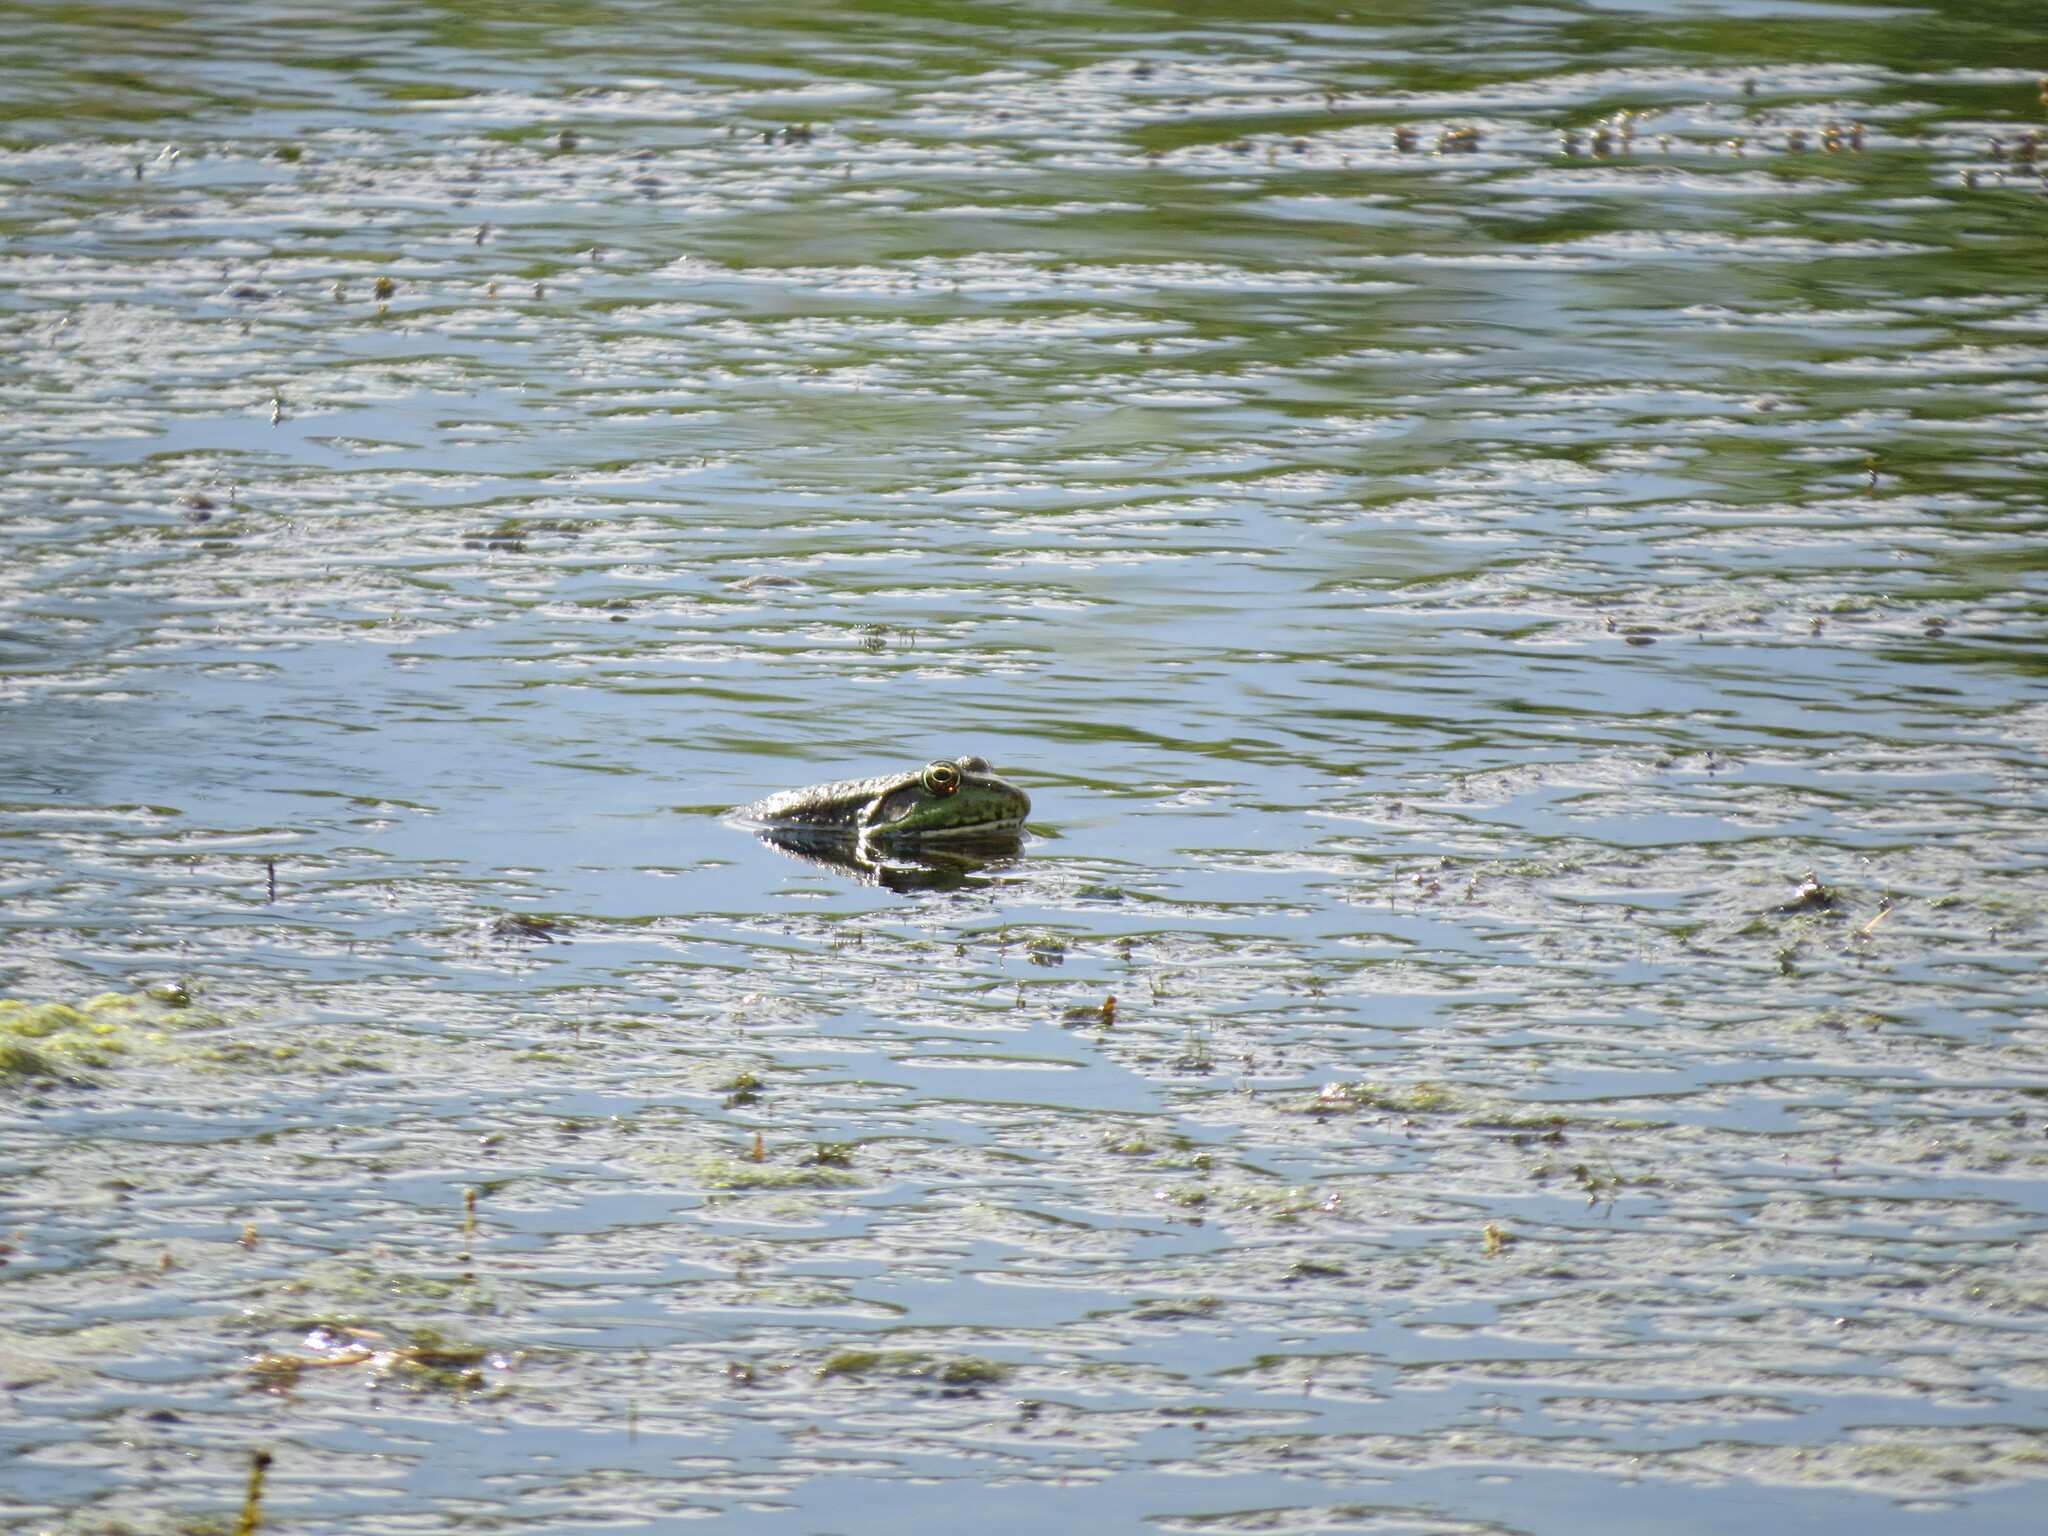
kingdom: Animalia
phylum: Chordata
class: Amphibia
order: Anura
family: Ranidae
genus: Pelophylax
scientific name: Pelophylax ridibundus
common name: Marsh frog
